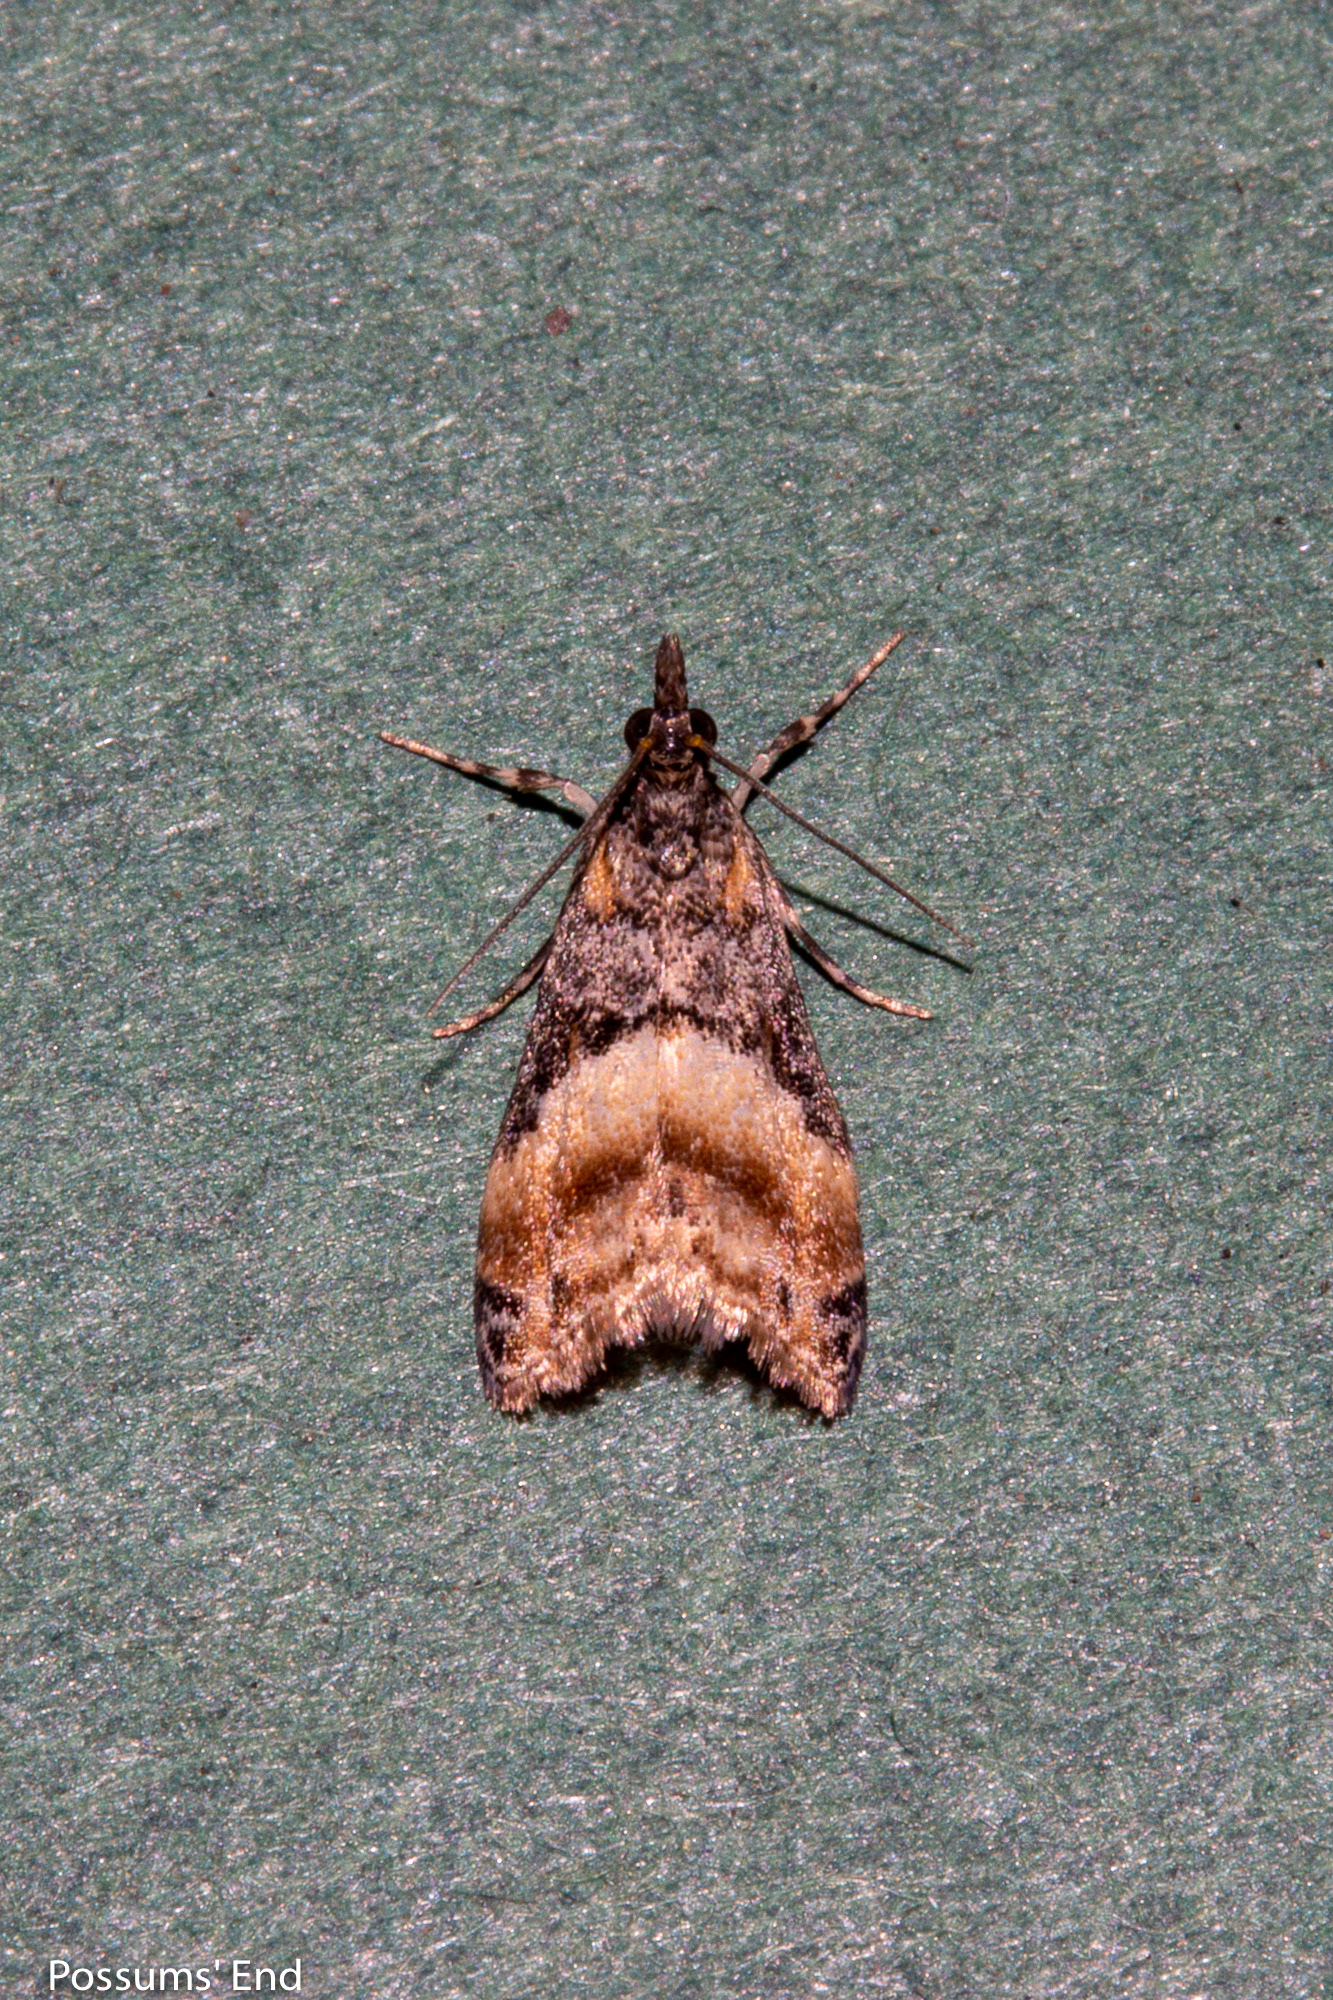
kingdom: Animalia
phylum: Arthropoda
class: Insecta
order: Lepidoptera
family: Crambidae
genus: Eudonia
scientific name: Eudonia chlamydota
